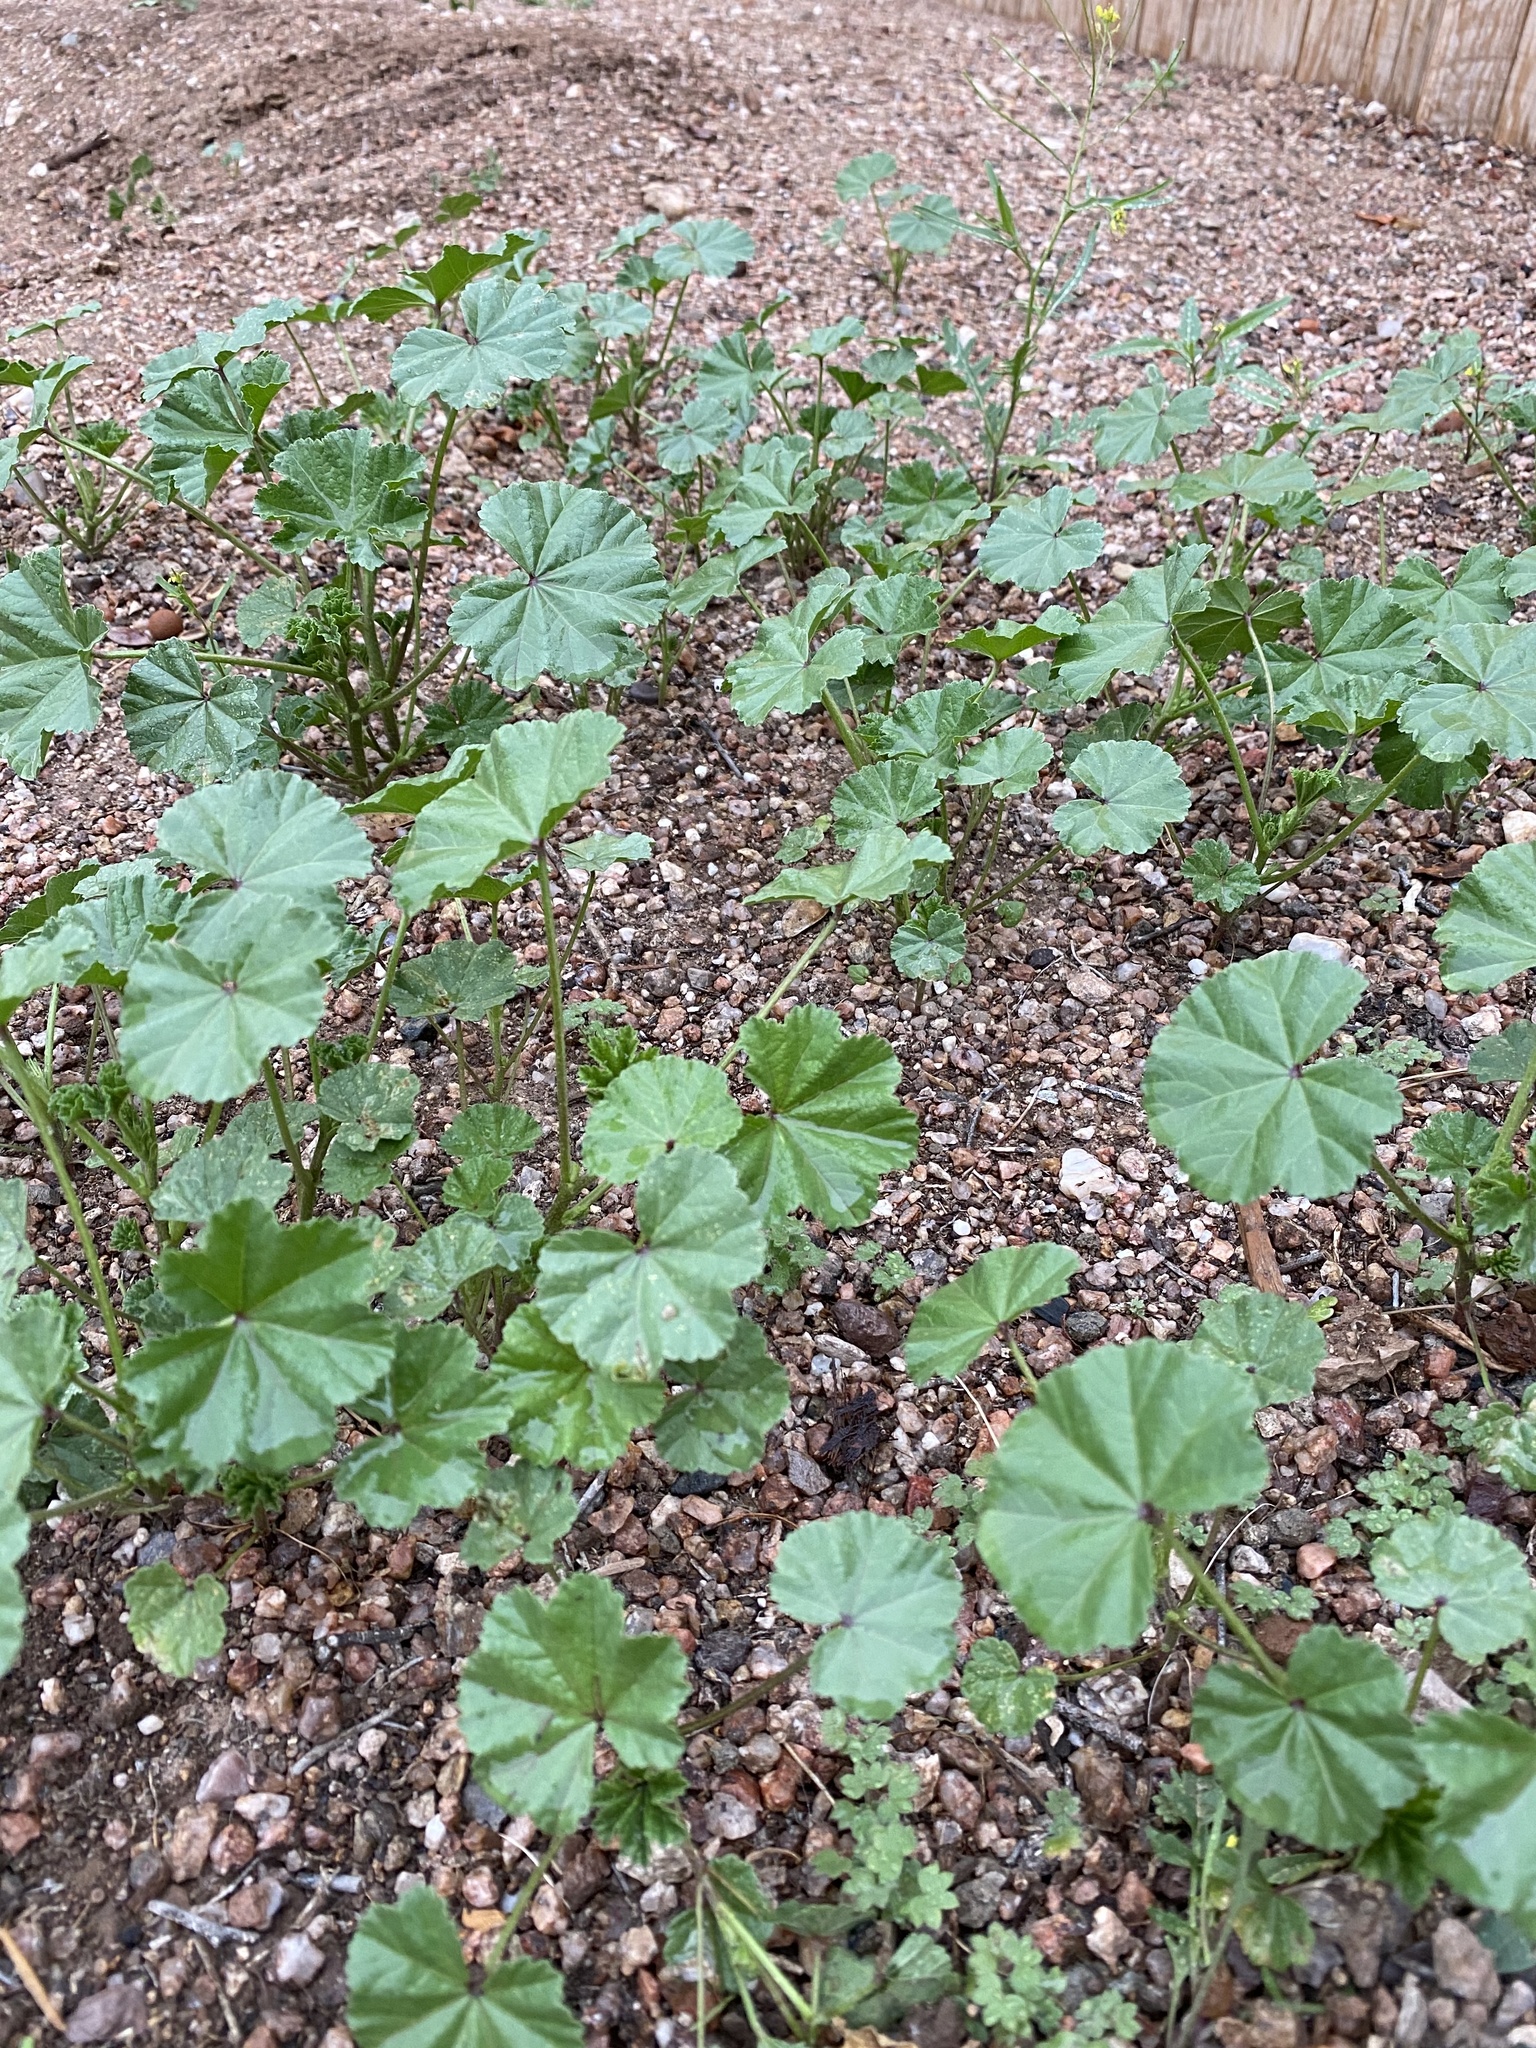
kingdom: Plantae
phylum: Tracheophyta
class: Magnoliopsida
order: Malvales
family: Malvaceae
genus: Malva
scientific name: Malva parviflora
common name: Least mallow
